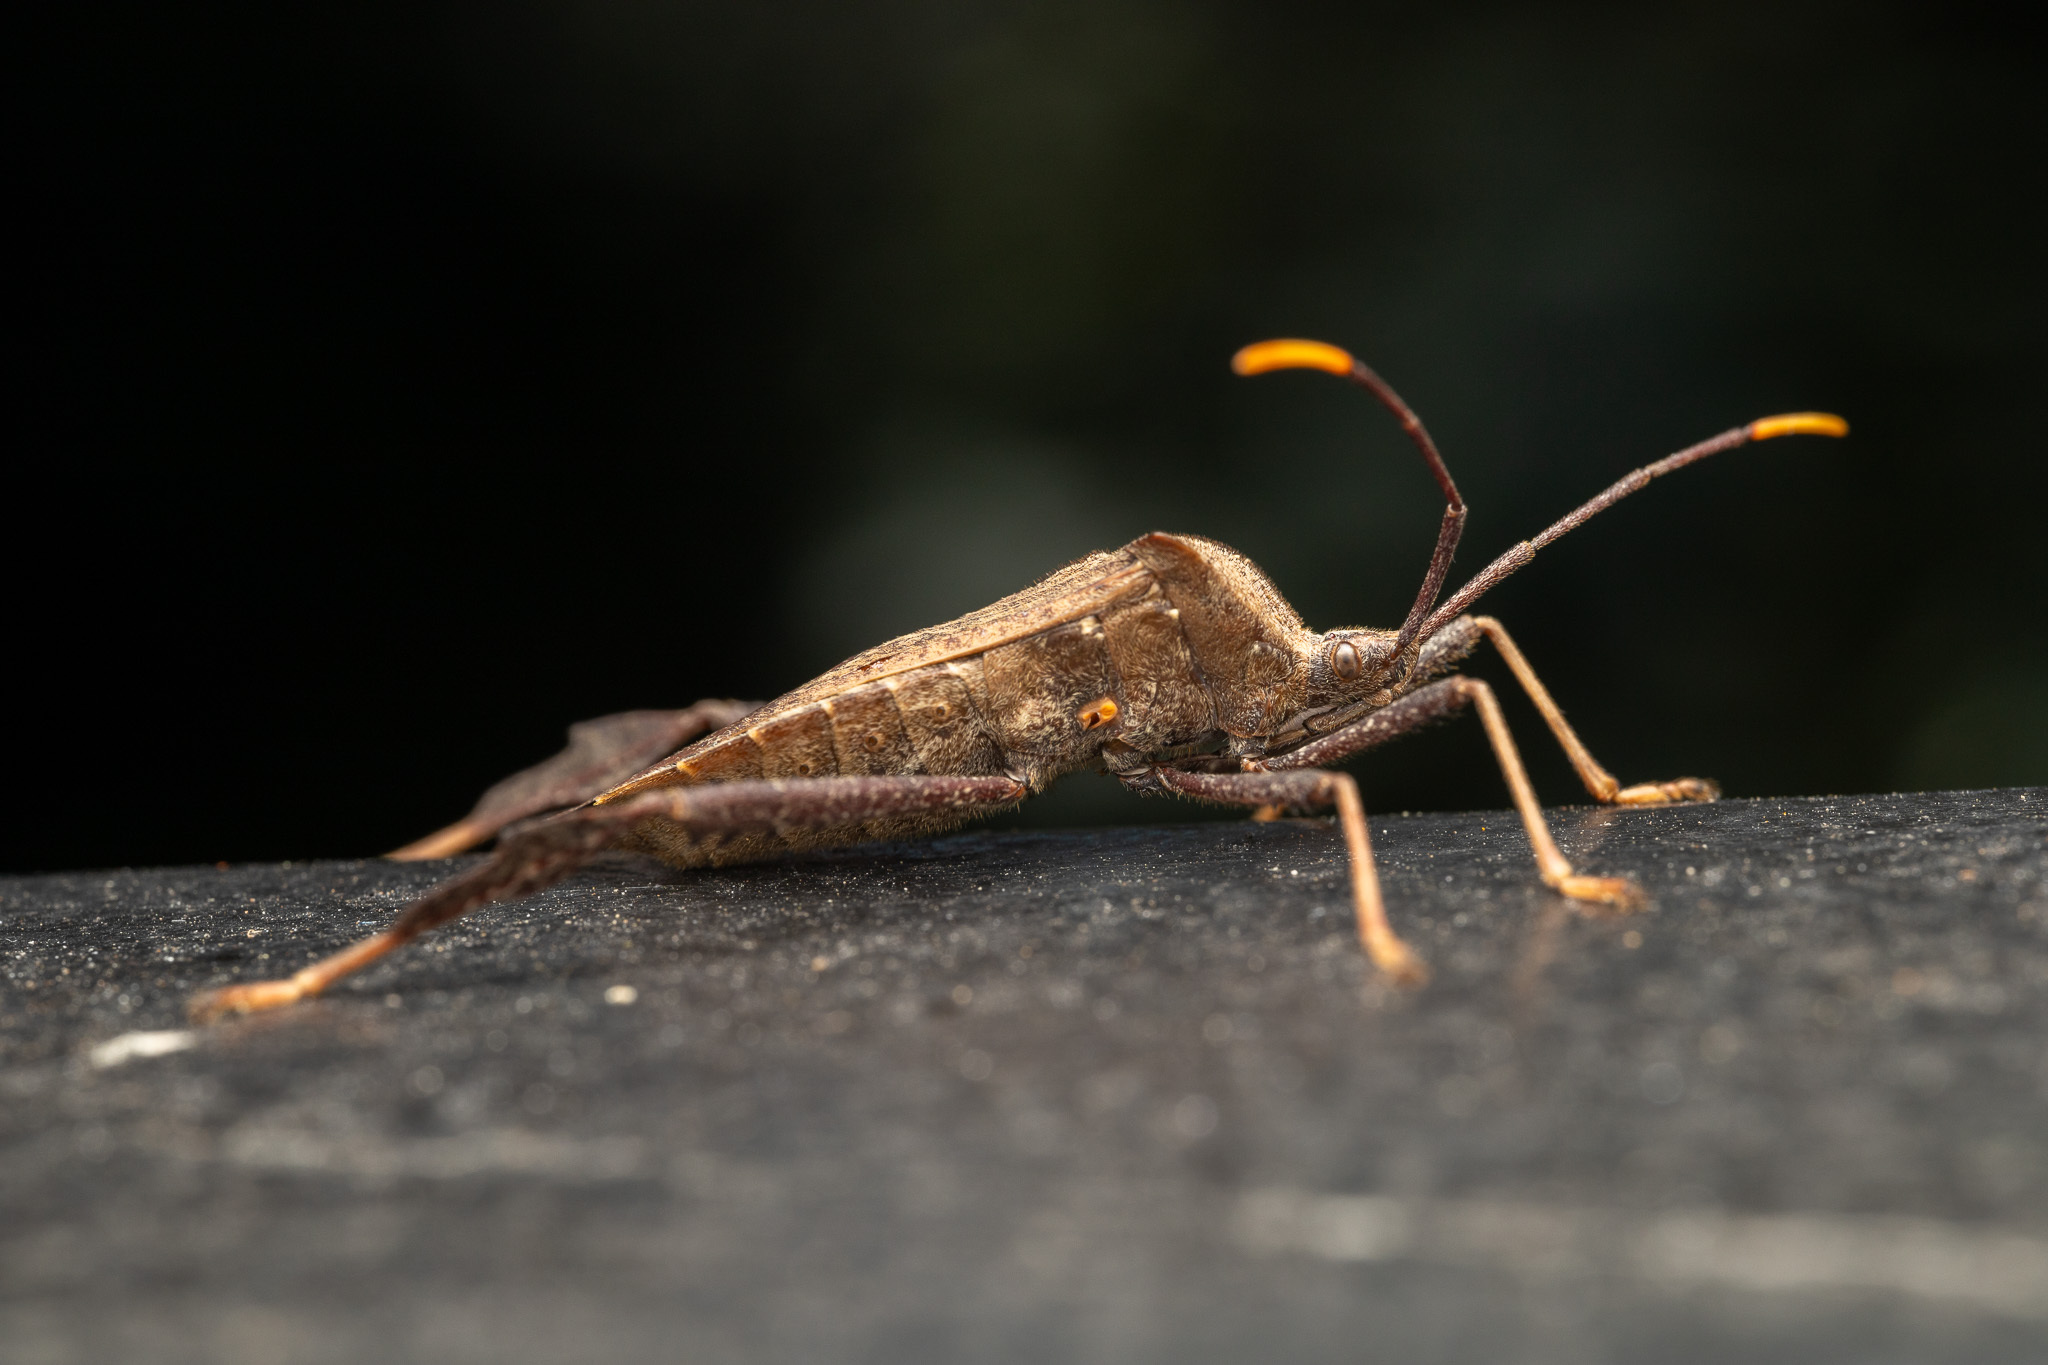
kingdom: Animalia
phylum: Arthropoda
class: Insecta
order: Hemiptera
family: Coreidae
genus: Acanthocephala
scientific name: Acanthocephala terminalis
